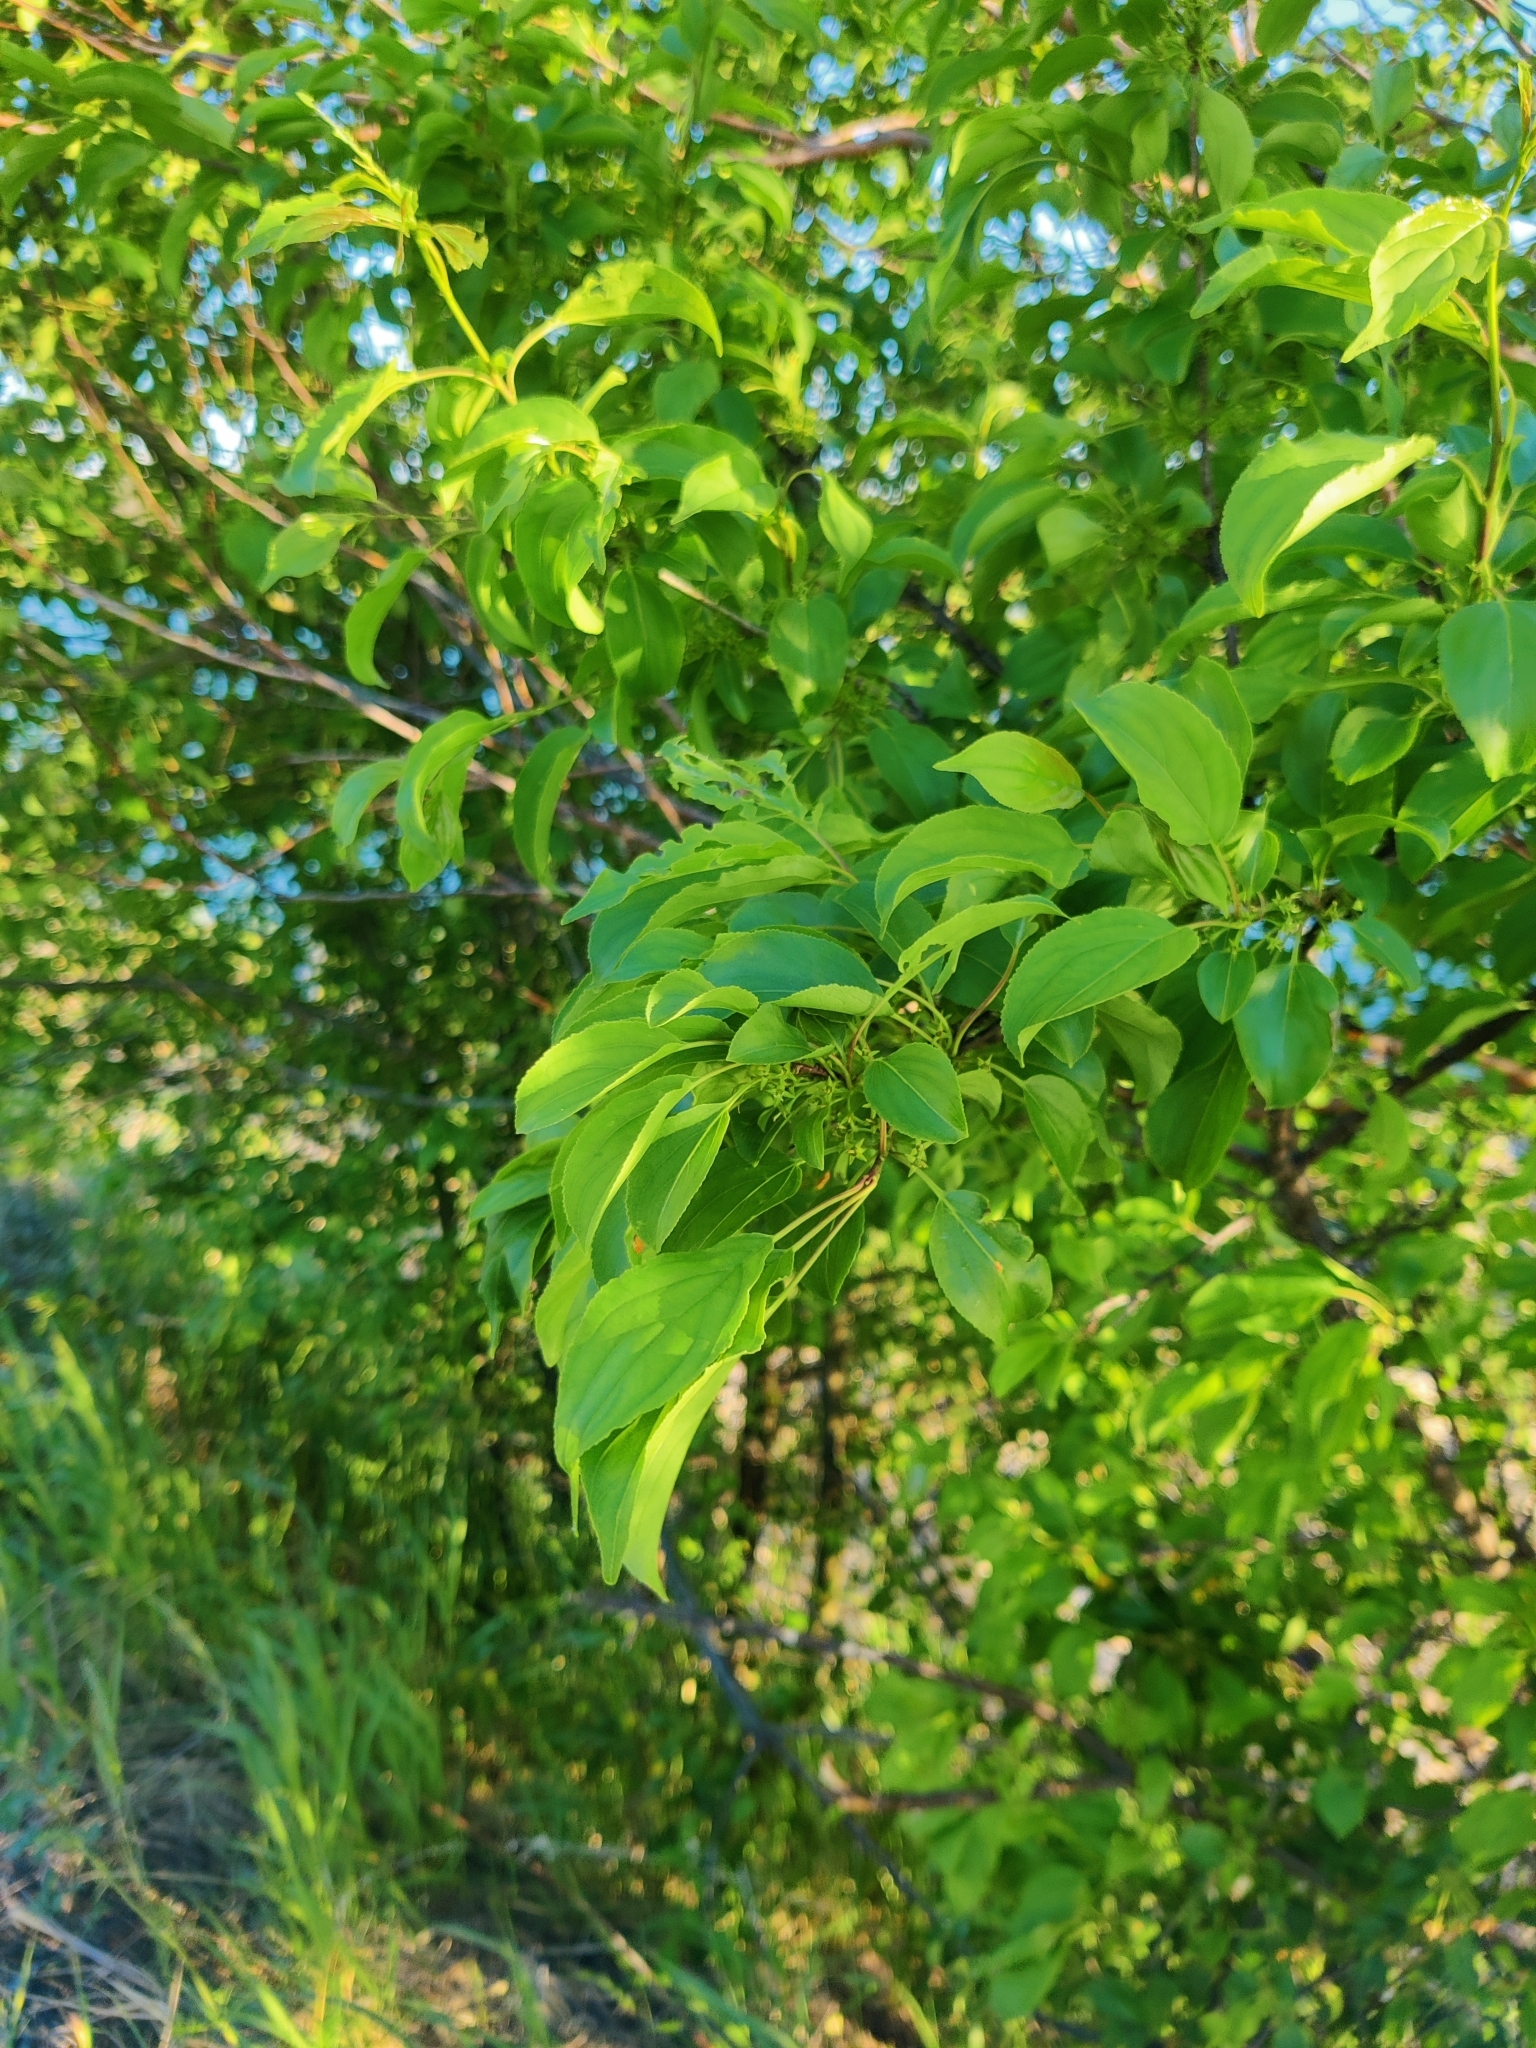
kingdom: Plantae
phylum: Tracheophyta
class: Magnoliopsida
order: Rosales
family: Rhamnaceae
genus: Rhamnus
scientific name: Rhamnus cathartica
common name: Common buckthorn
